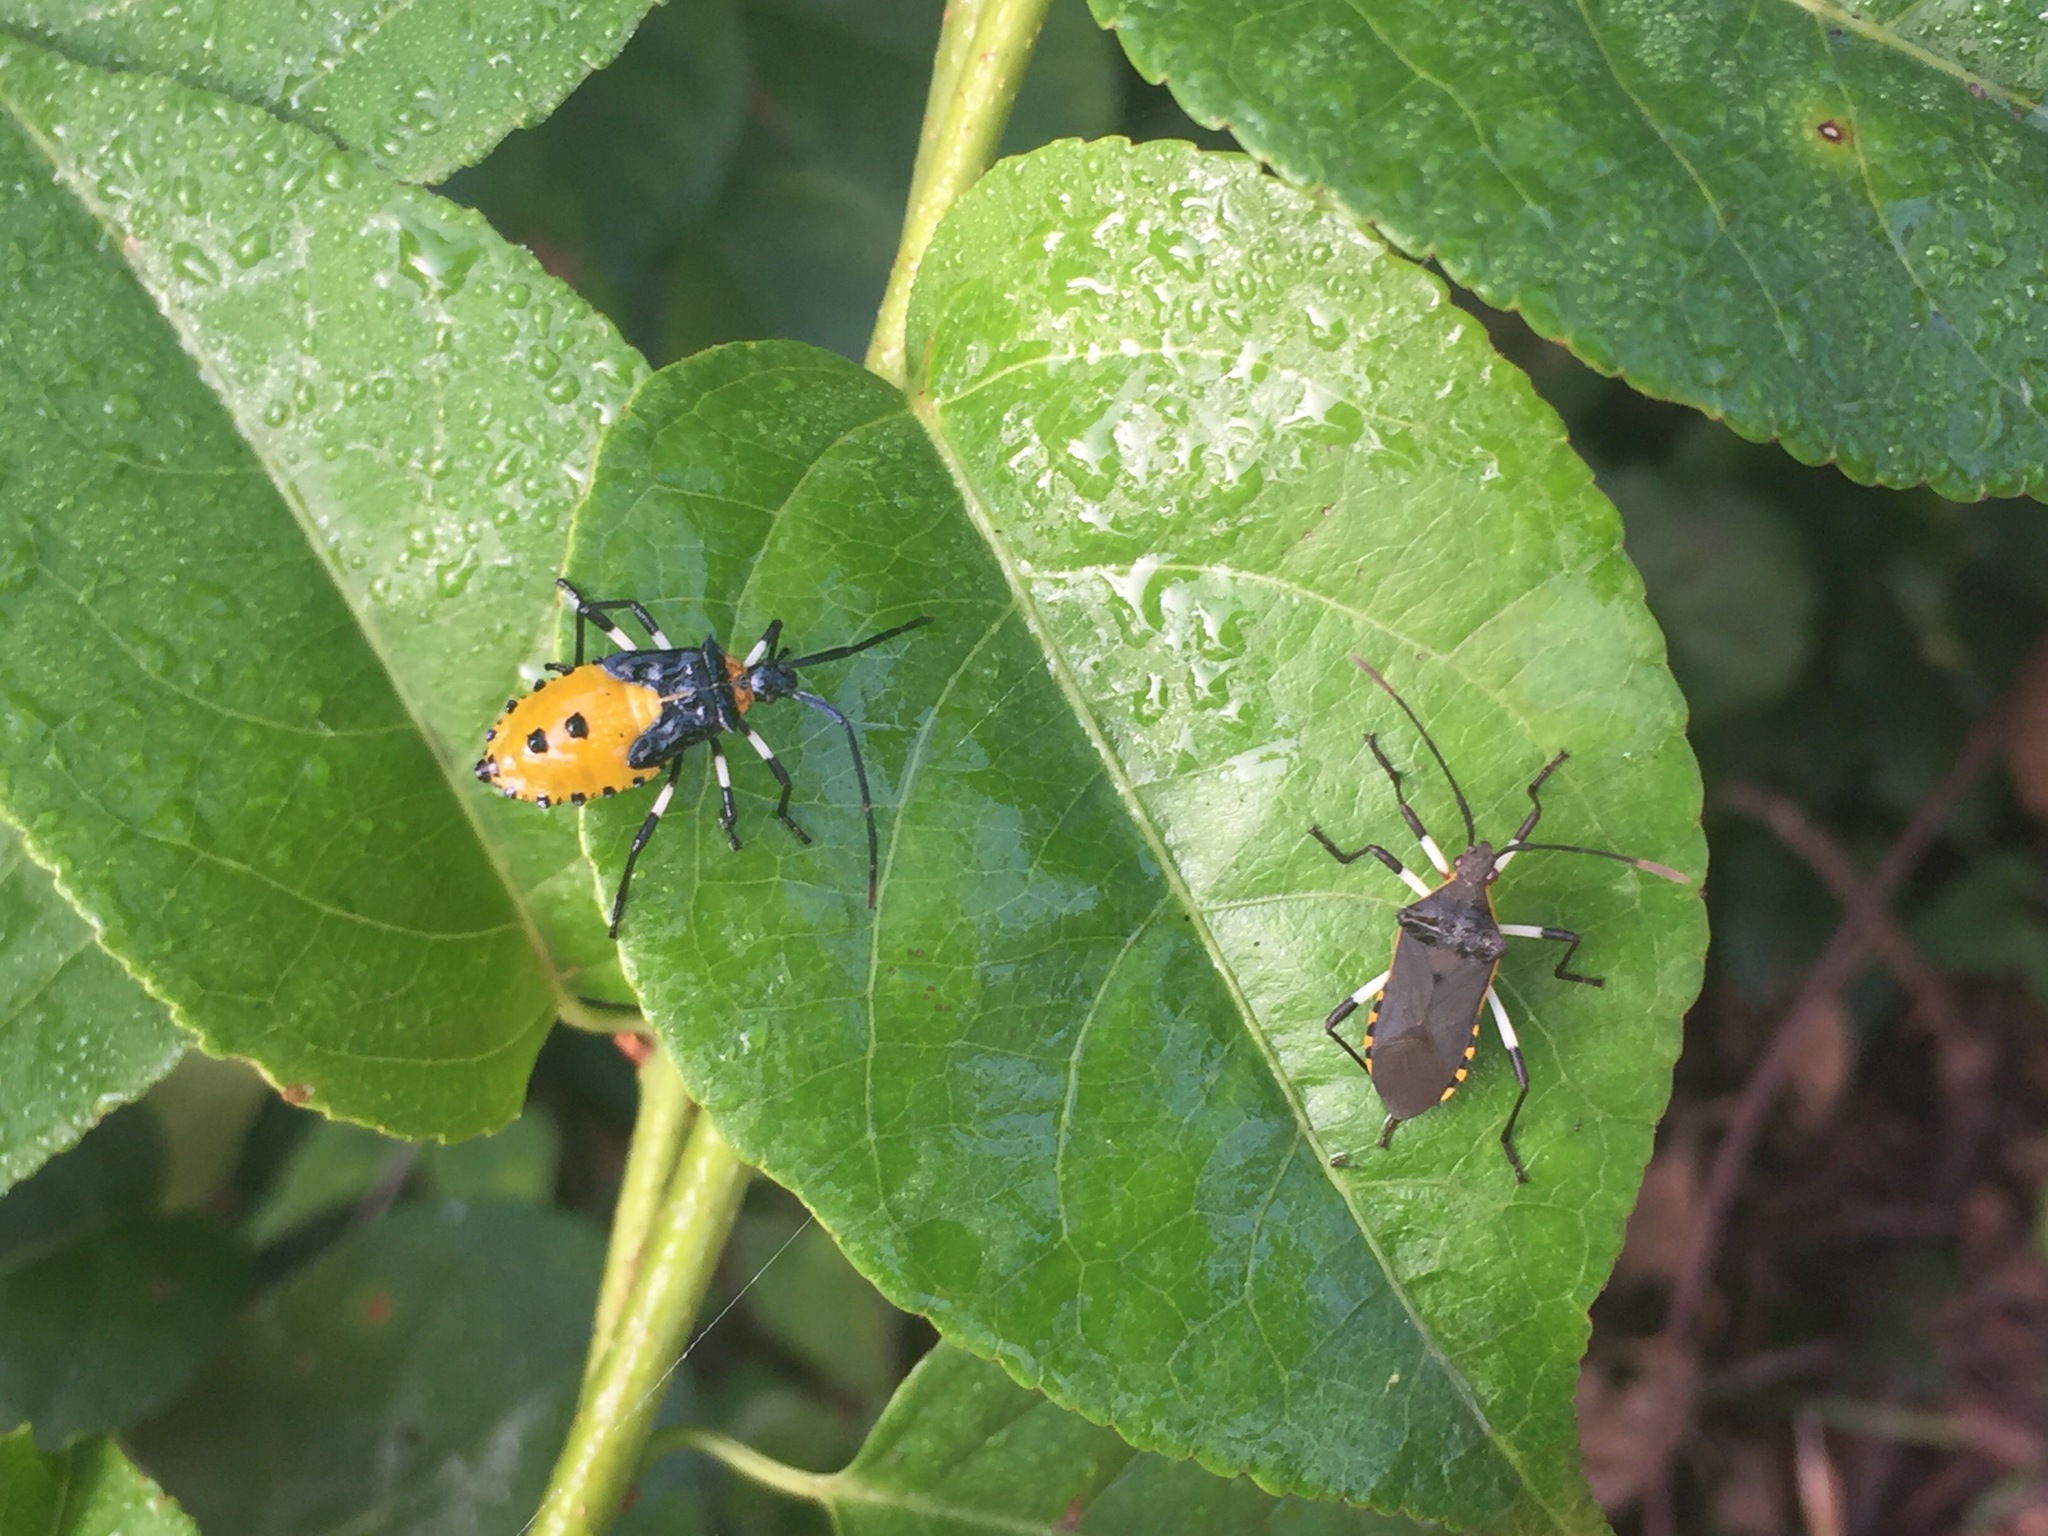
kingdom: Animalia
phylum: Arthropoda
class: Insecta
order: Hemiptera
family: Coreidae
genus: Plinachtus
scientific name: Plinachtus bicoloripes
